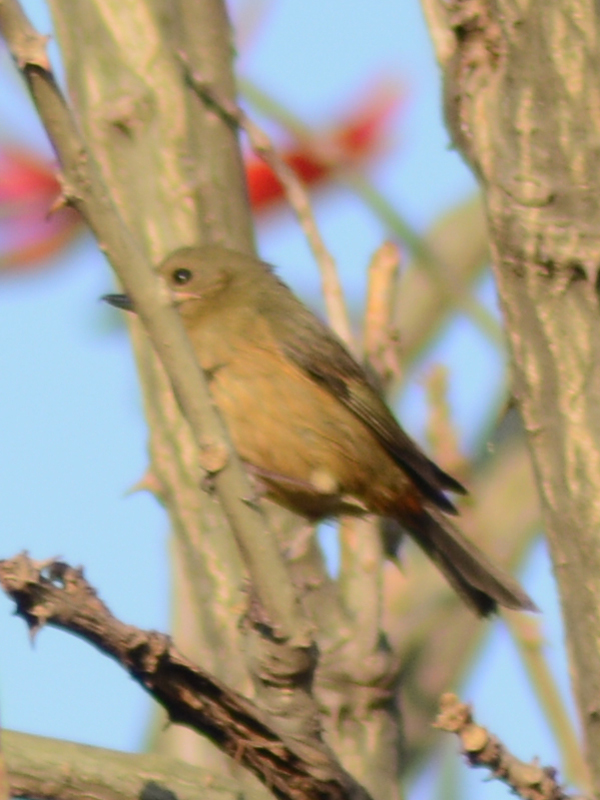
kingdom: Animalia
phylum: Chordata
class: Aves
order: Passeriformes
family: Thraupidae
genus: Diglossa
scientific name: Diglossa baritula
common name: Cinnamon-bellied flowerpiercer
